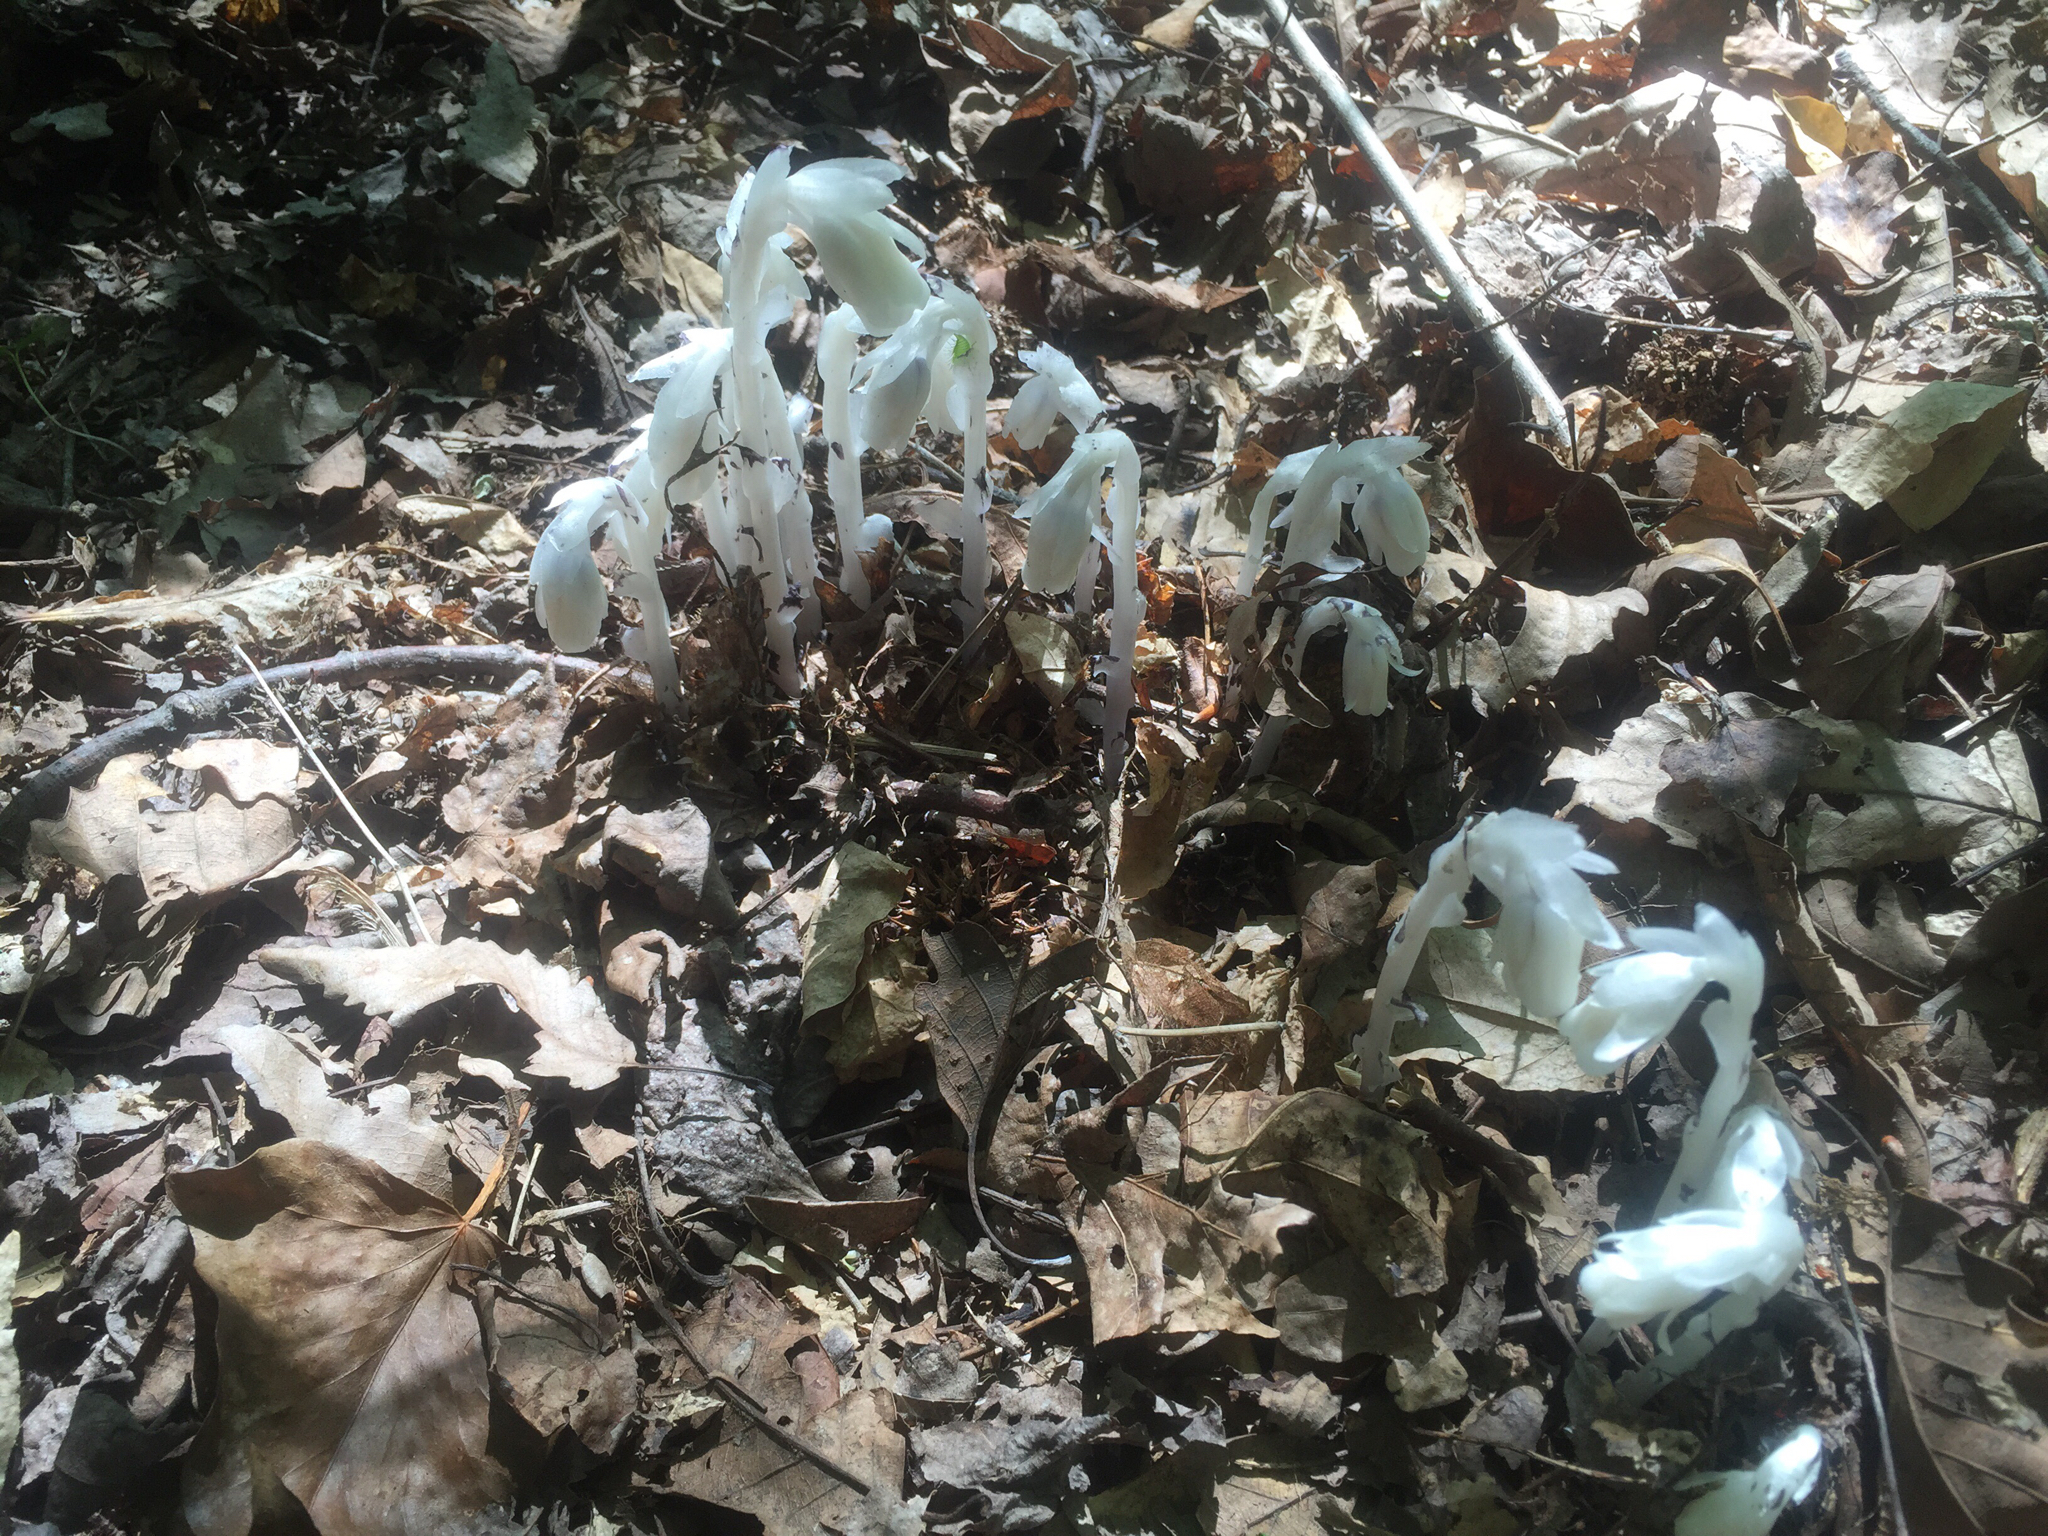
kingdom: Plantae
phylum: Tracheophyta
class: Magnoliopsida
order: Ericales
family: Ericaceae
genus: Monotropa
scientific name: Monotropa uniflora
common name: Convulsion root
